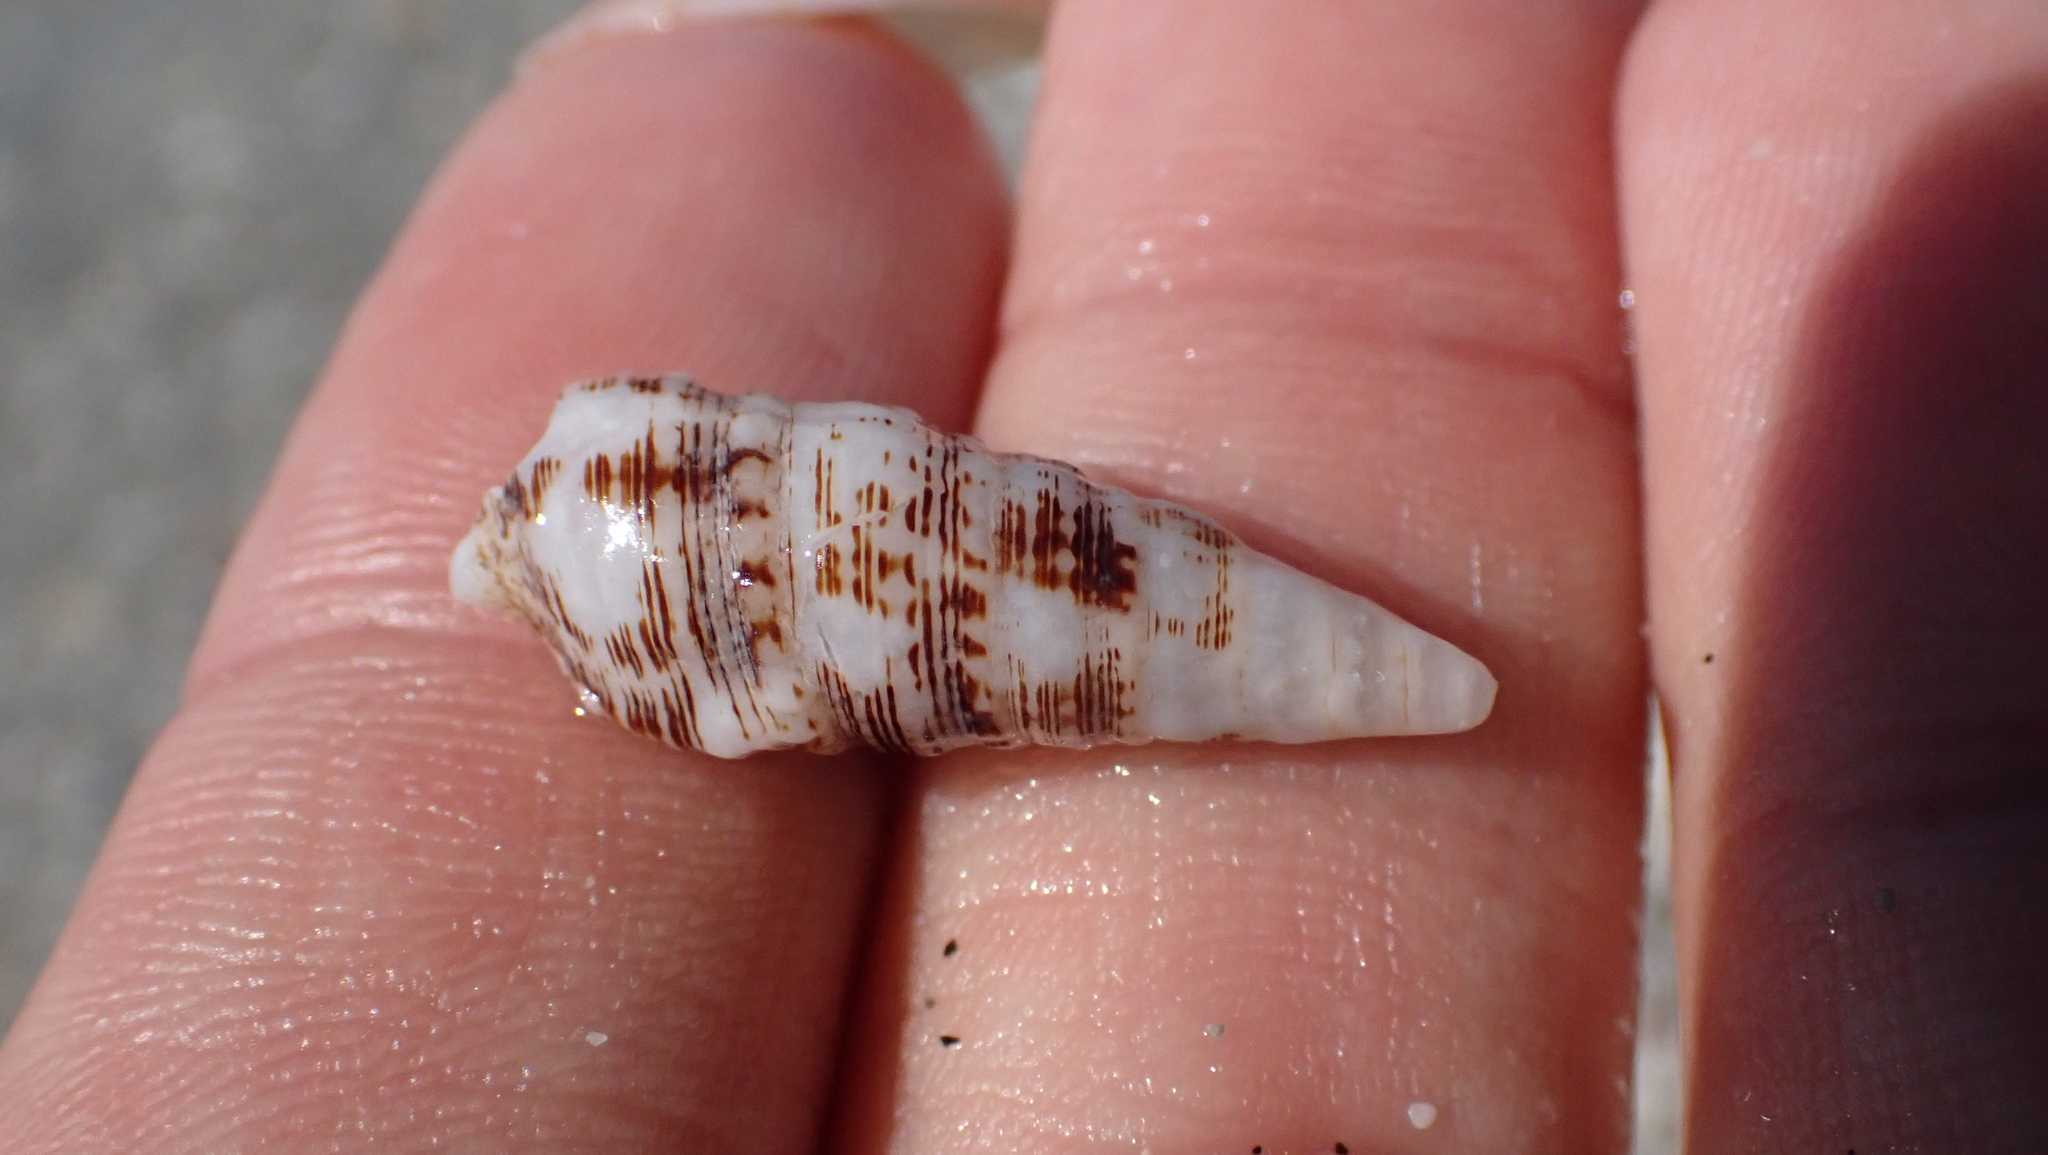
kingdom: Animalia
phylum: Mollusca
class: Gastropoda
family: Cerithiidae
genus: Cerithium
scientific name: Cerithium atratum
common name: Dark cerith
